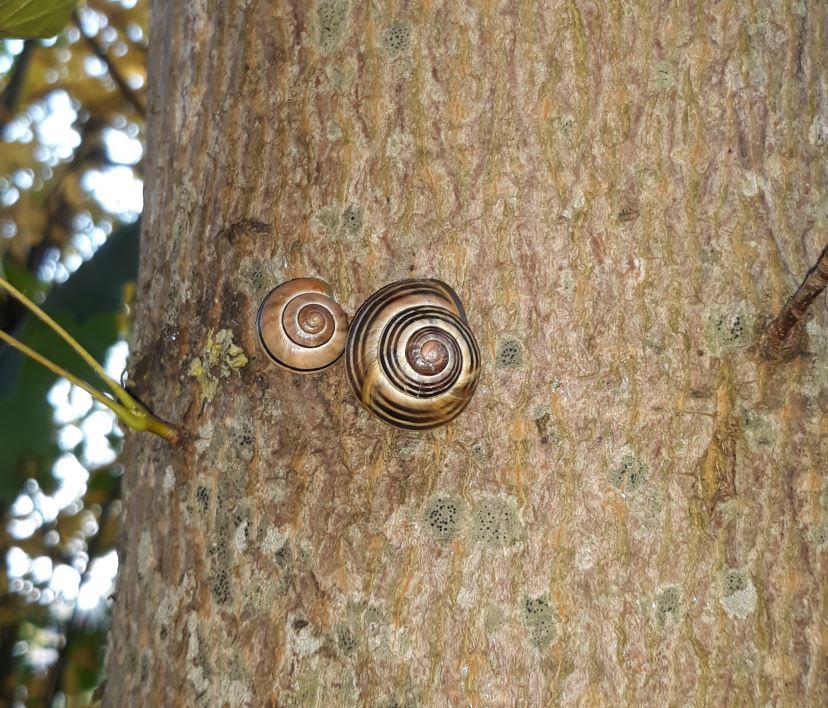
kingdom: Animalia
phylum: Mollusca
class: Gastropoda
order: Stylommatophora
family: Helicidae
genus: Cepaea
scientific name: Cepaea nemoralis
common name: Grovesnail
